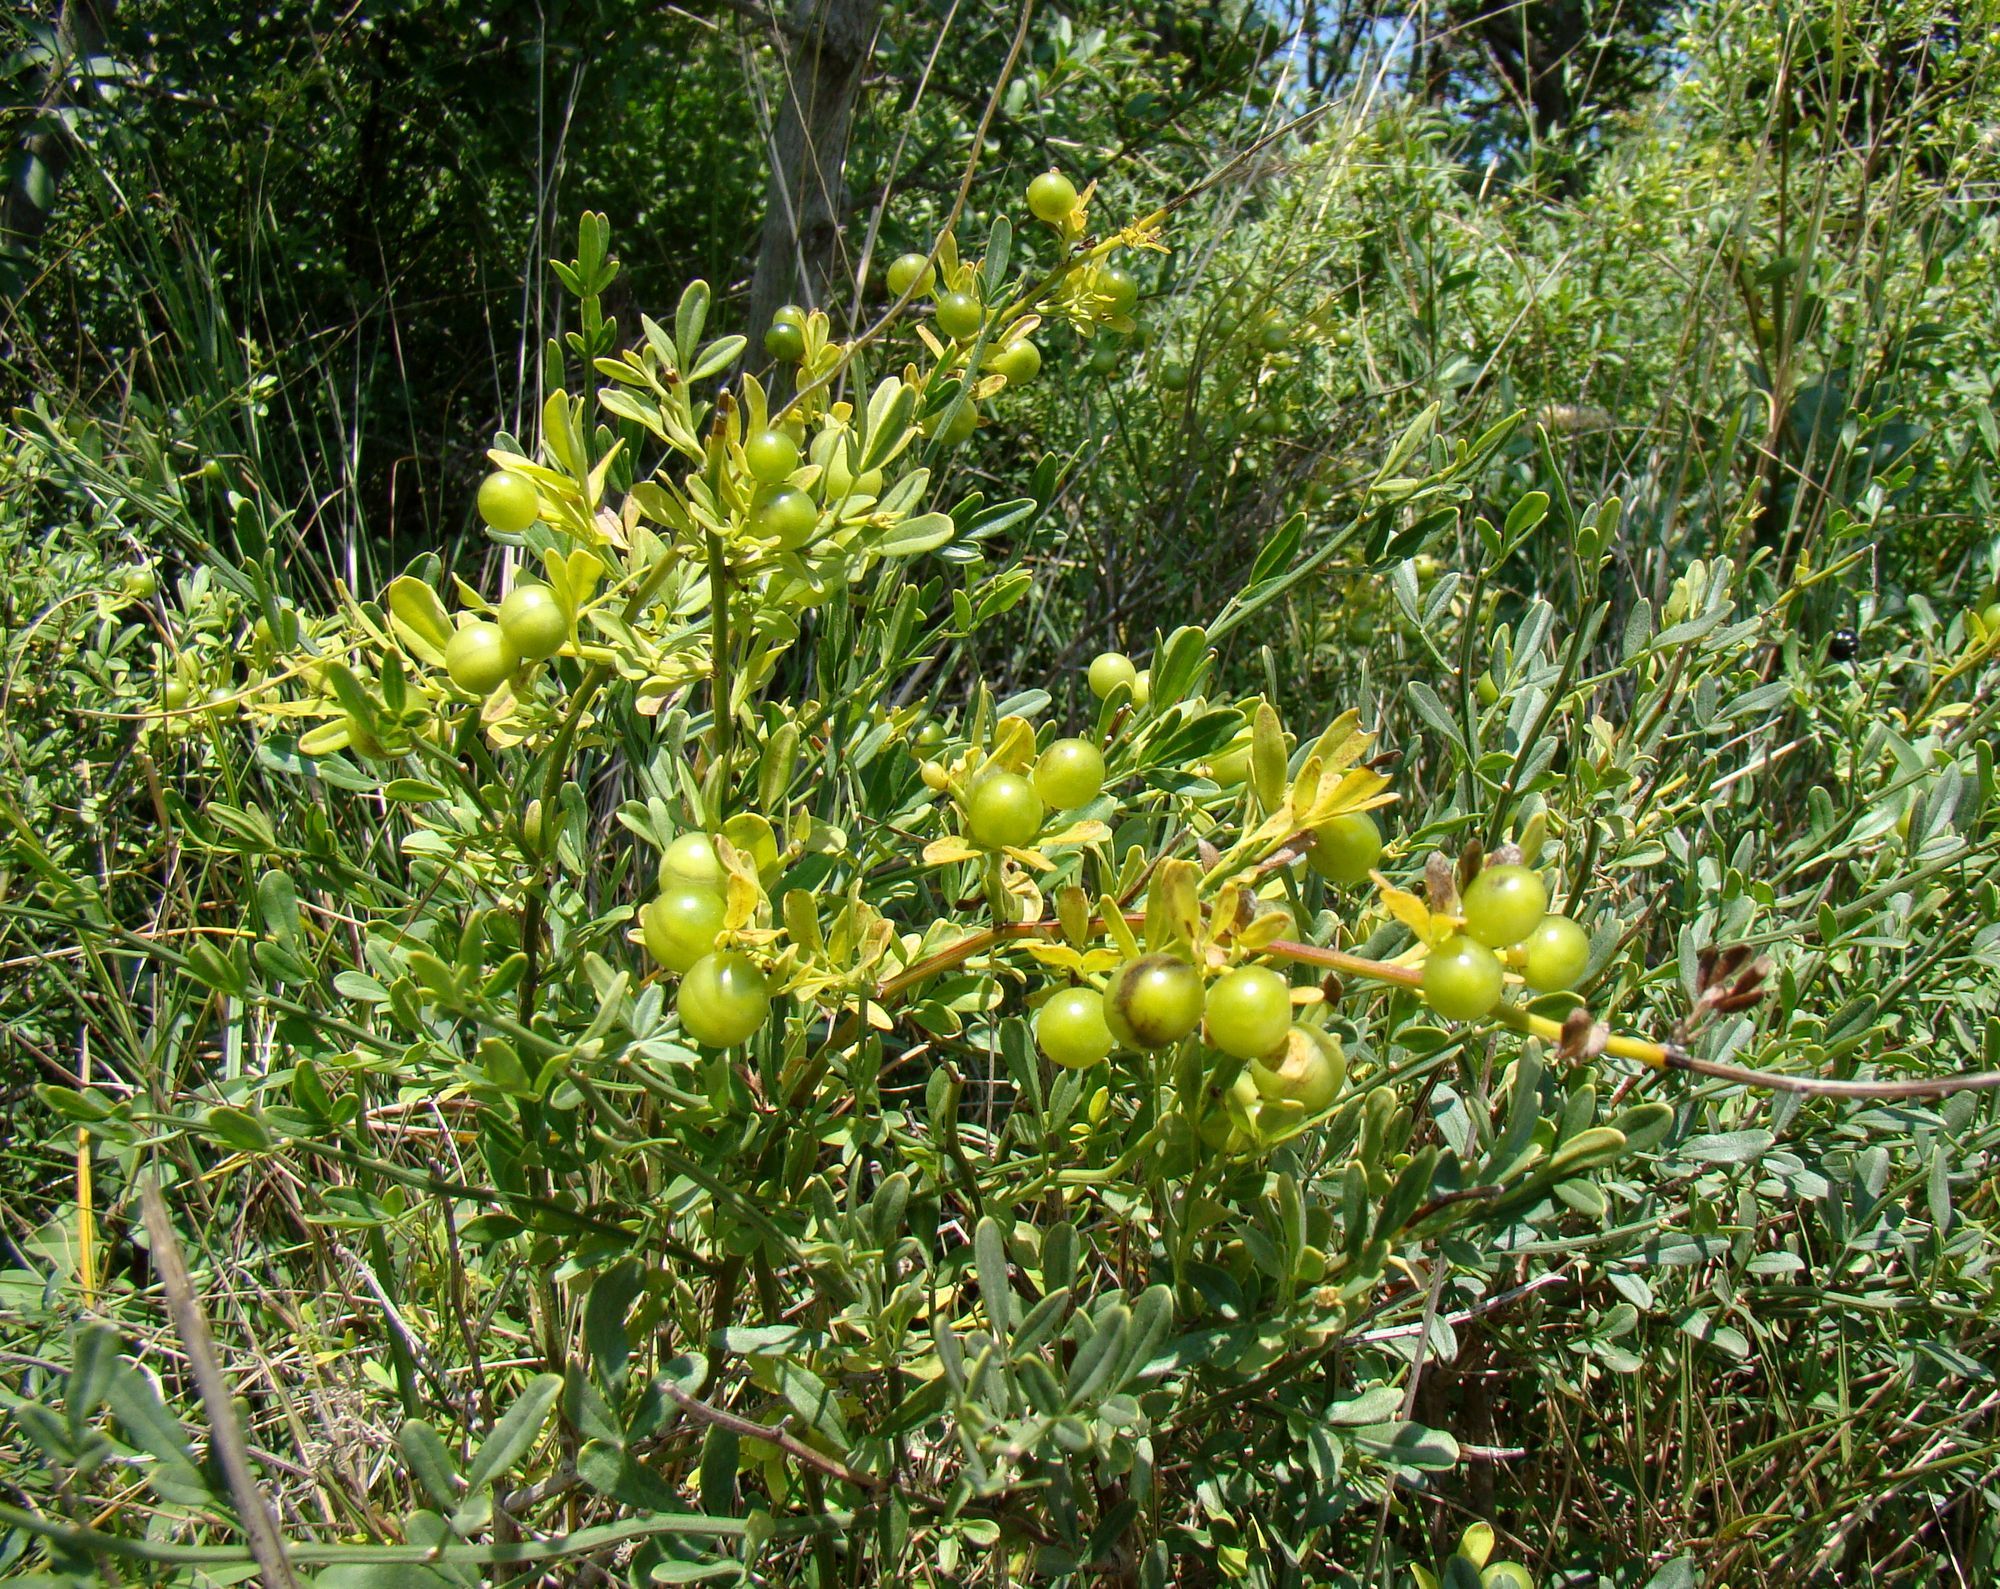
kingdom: Plantae
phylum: Tracheophyta
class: Magnoliopsida
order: Lamiales
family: Oleaceae
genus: Chrysojasminum
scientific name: Chrysojasminum fruticans
